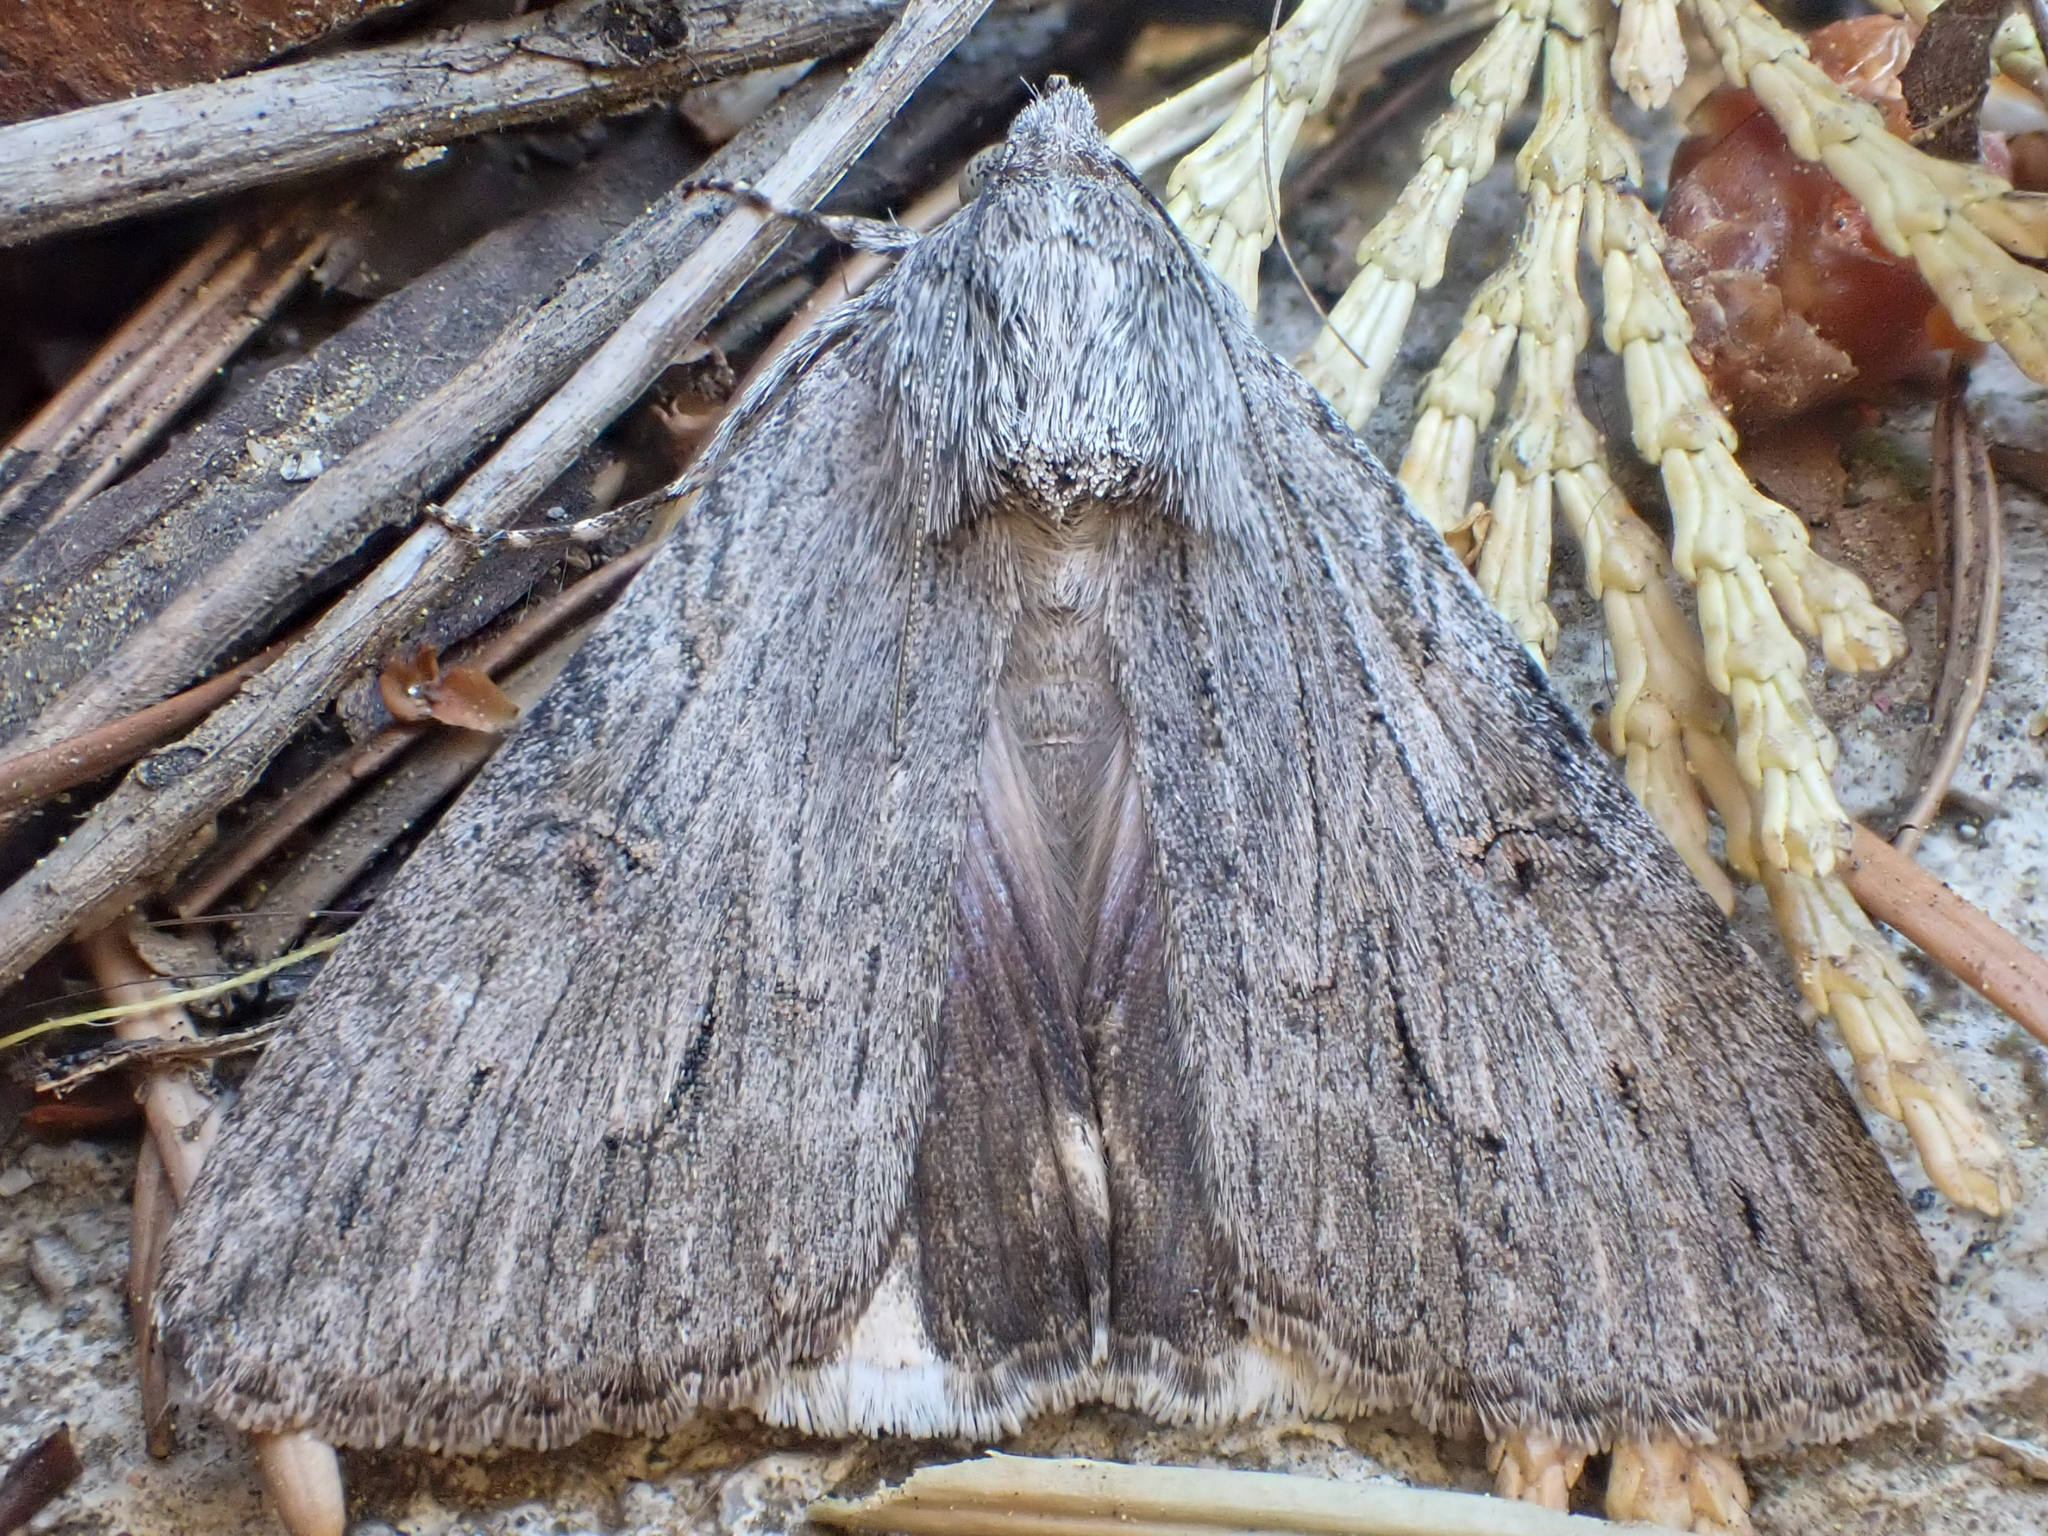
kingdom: Animalia
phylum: Arthropoda
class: Insecta
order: Lepidoptera
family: Erebidae
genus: Melipotis
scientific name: Melipotis jucunda
